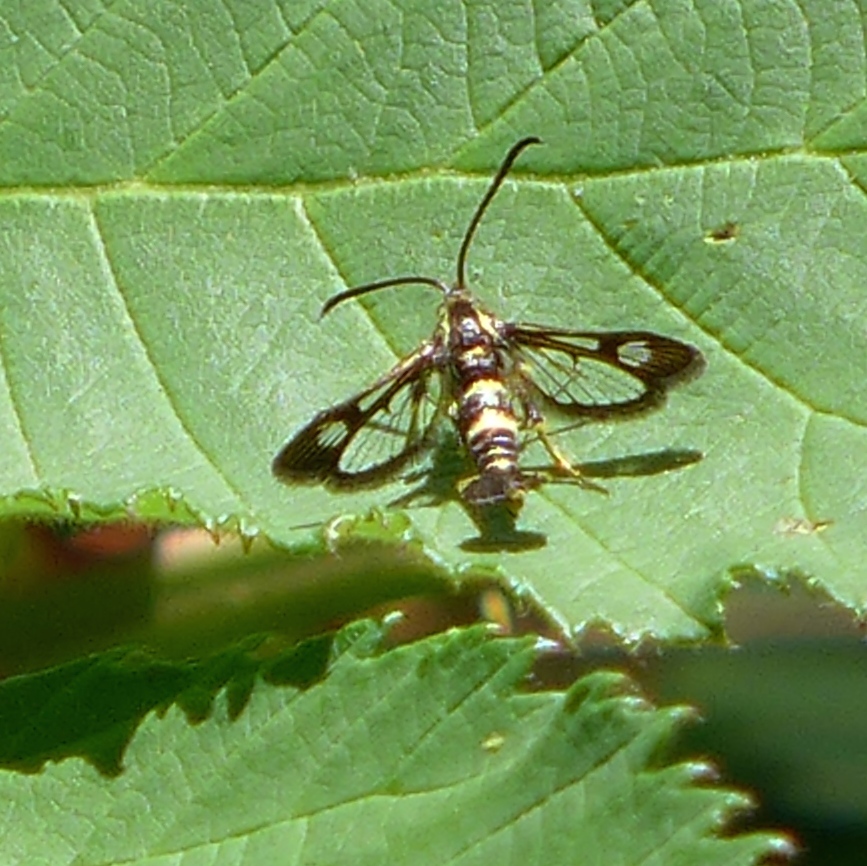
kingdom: Animalia
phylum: Arthropoda
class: Insecta
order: Lepidoptera
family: Sesiidae
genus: Synanthedon
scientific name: Synanthedon bibionipennis
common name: Strawberry crown moth
